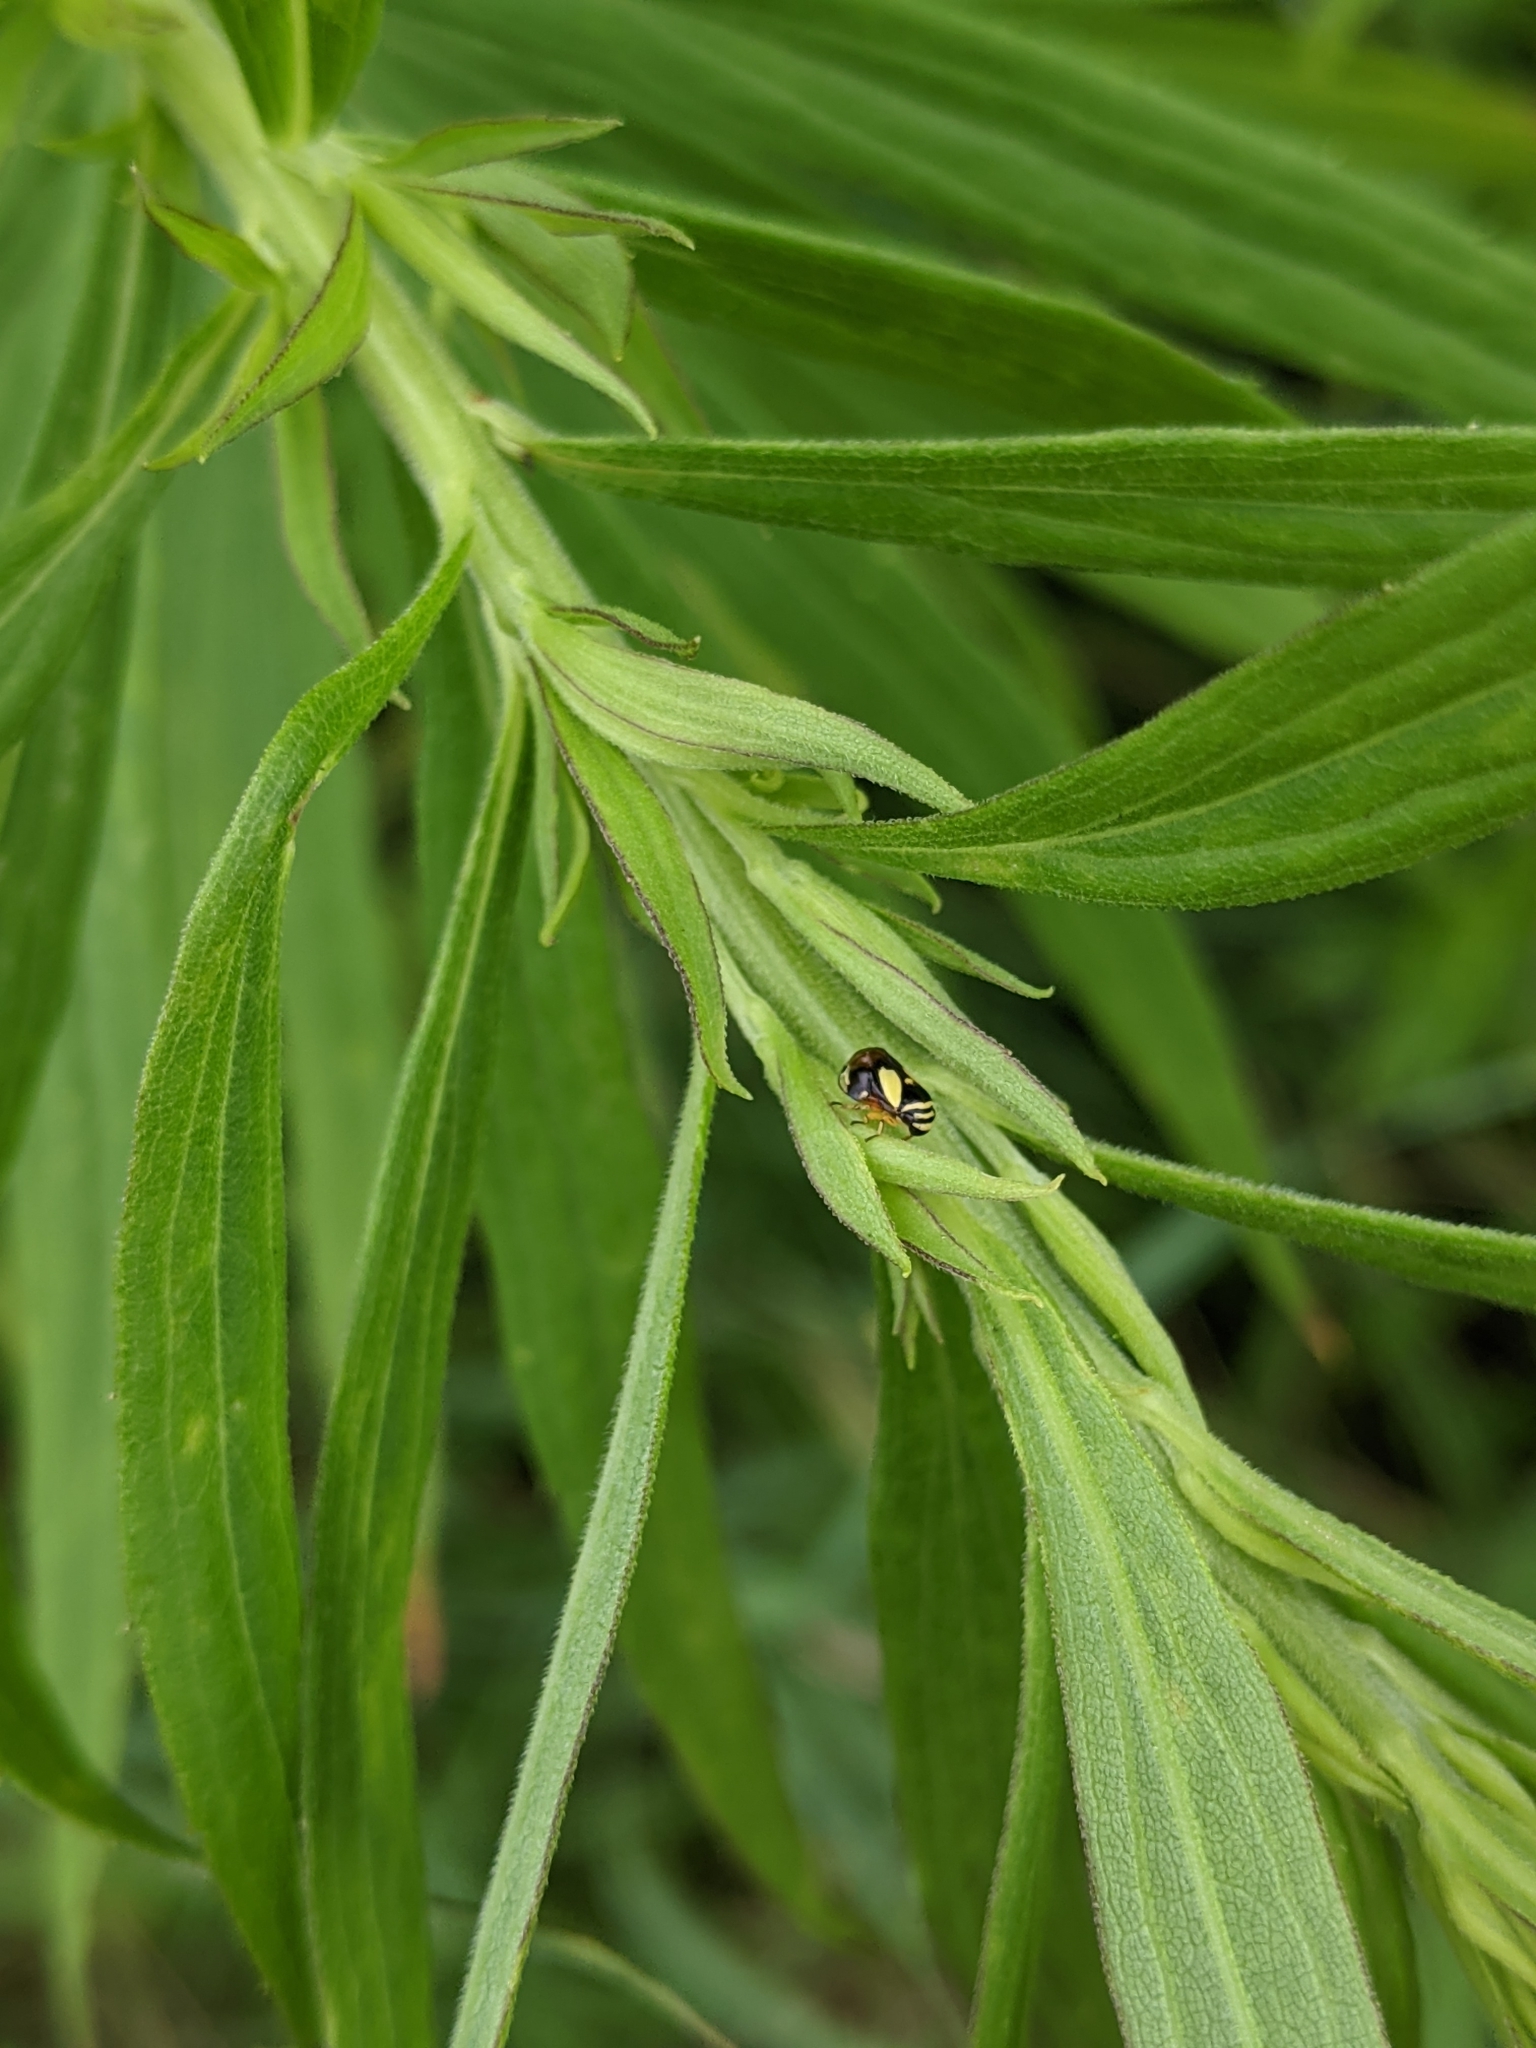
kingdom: Animalia
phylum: Arthropoda
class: Insecta
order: Hemiptera
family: Clastopteridae
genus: Clastoptera
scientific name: Clastoptera proteus
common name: Dogwood spittlebug
